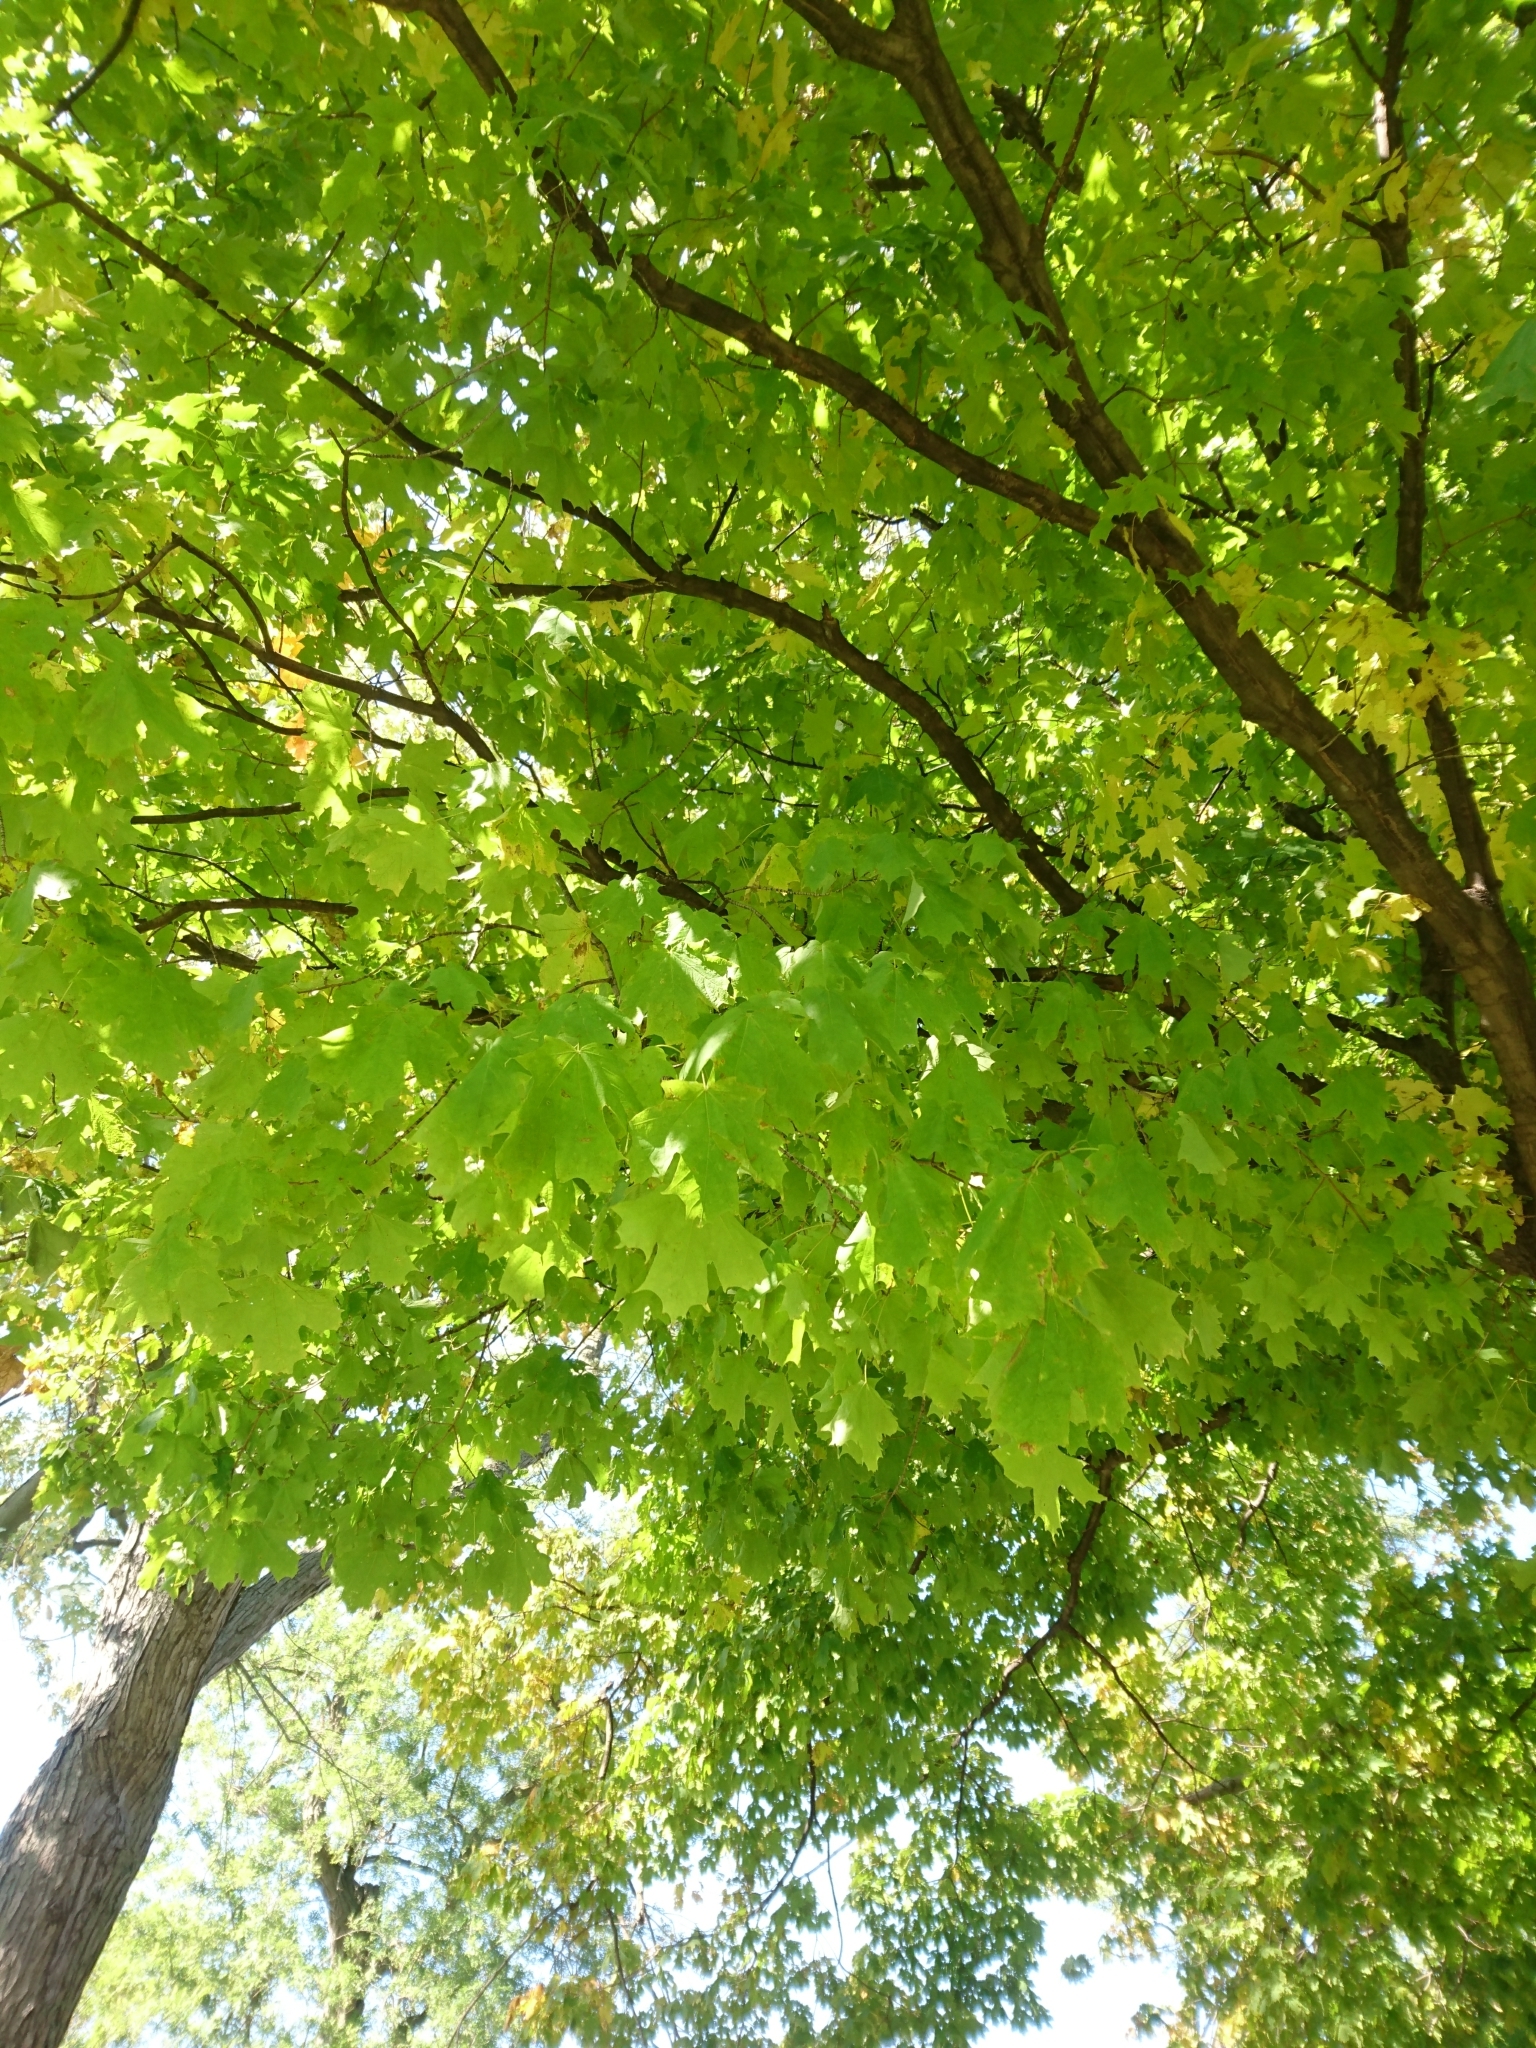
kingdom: Plantae
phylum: Tracheophyta
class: Magnoliopsida
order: Sapindales
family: Sapindaceae
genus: Acer
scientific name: Acer saccharum
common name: Sugar maple
